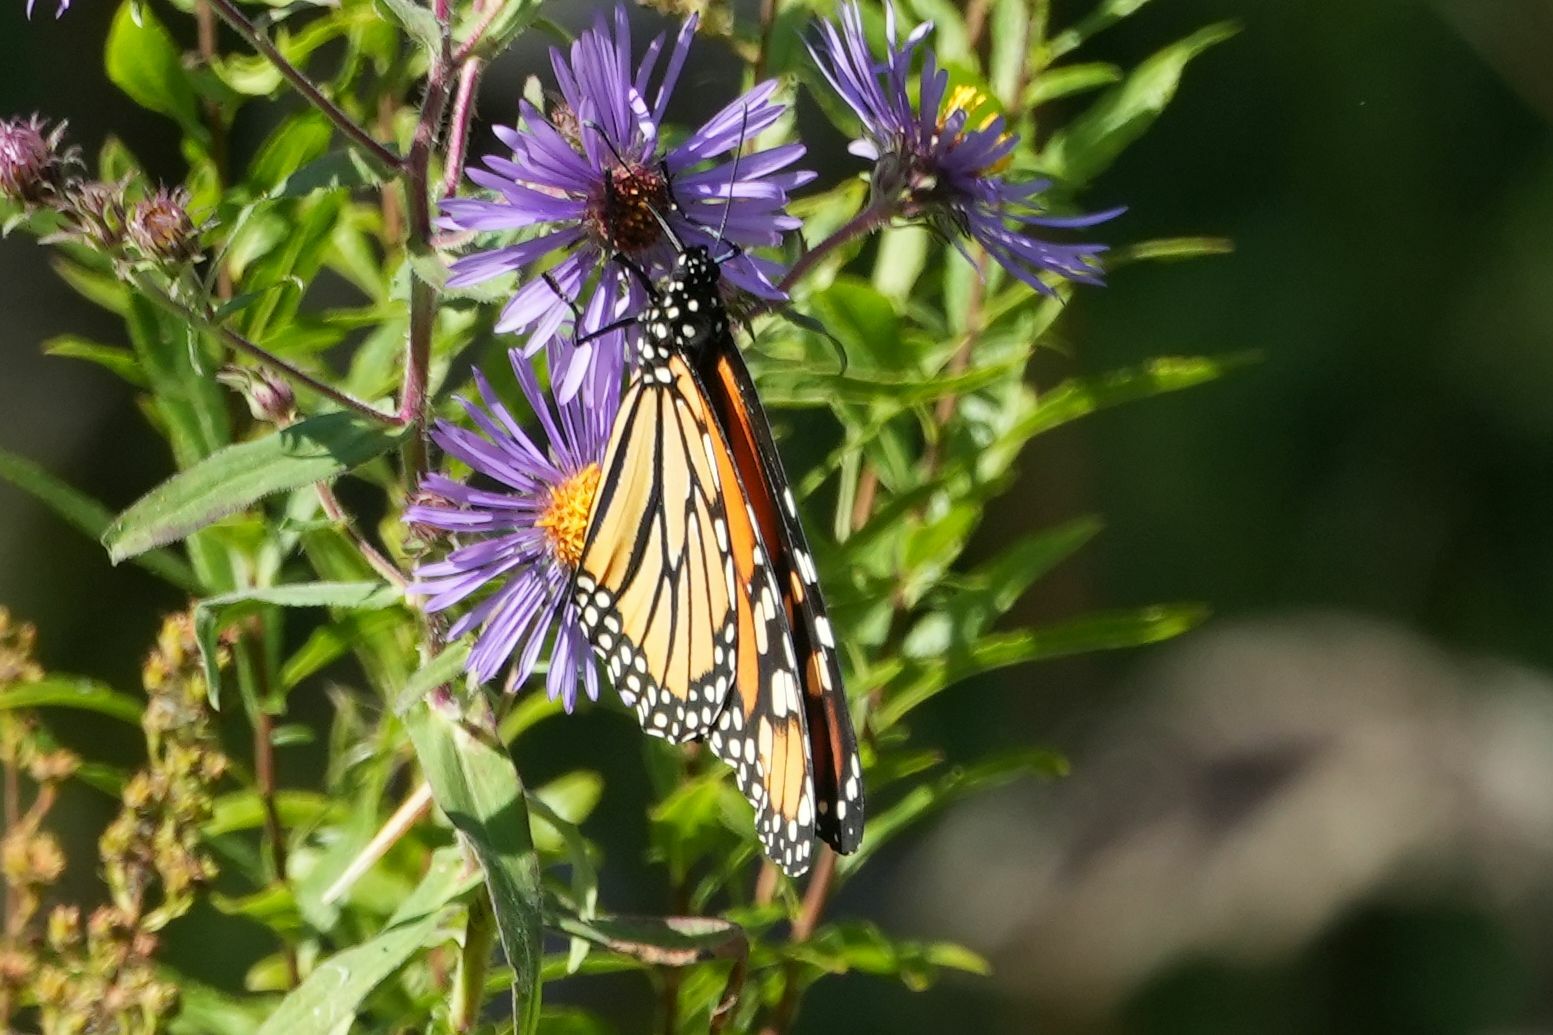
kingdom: Animalia
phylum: Arthropoda
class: Insecta
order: Lepidoptera
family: Nymphalidae
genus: Danaus
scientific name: Danaus plexippus
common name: Monarch
